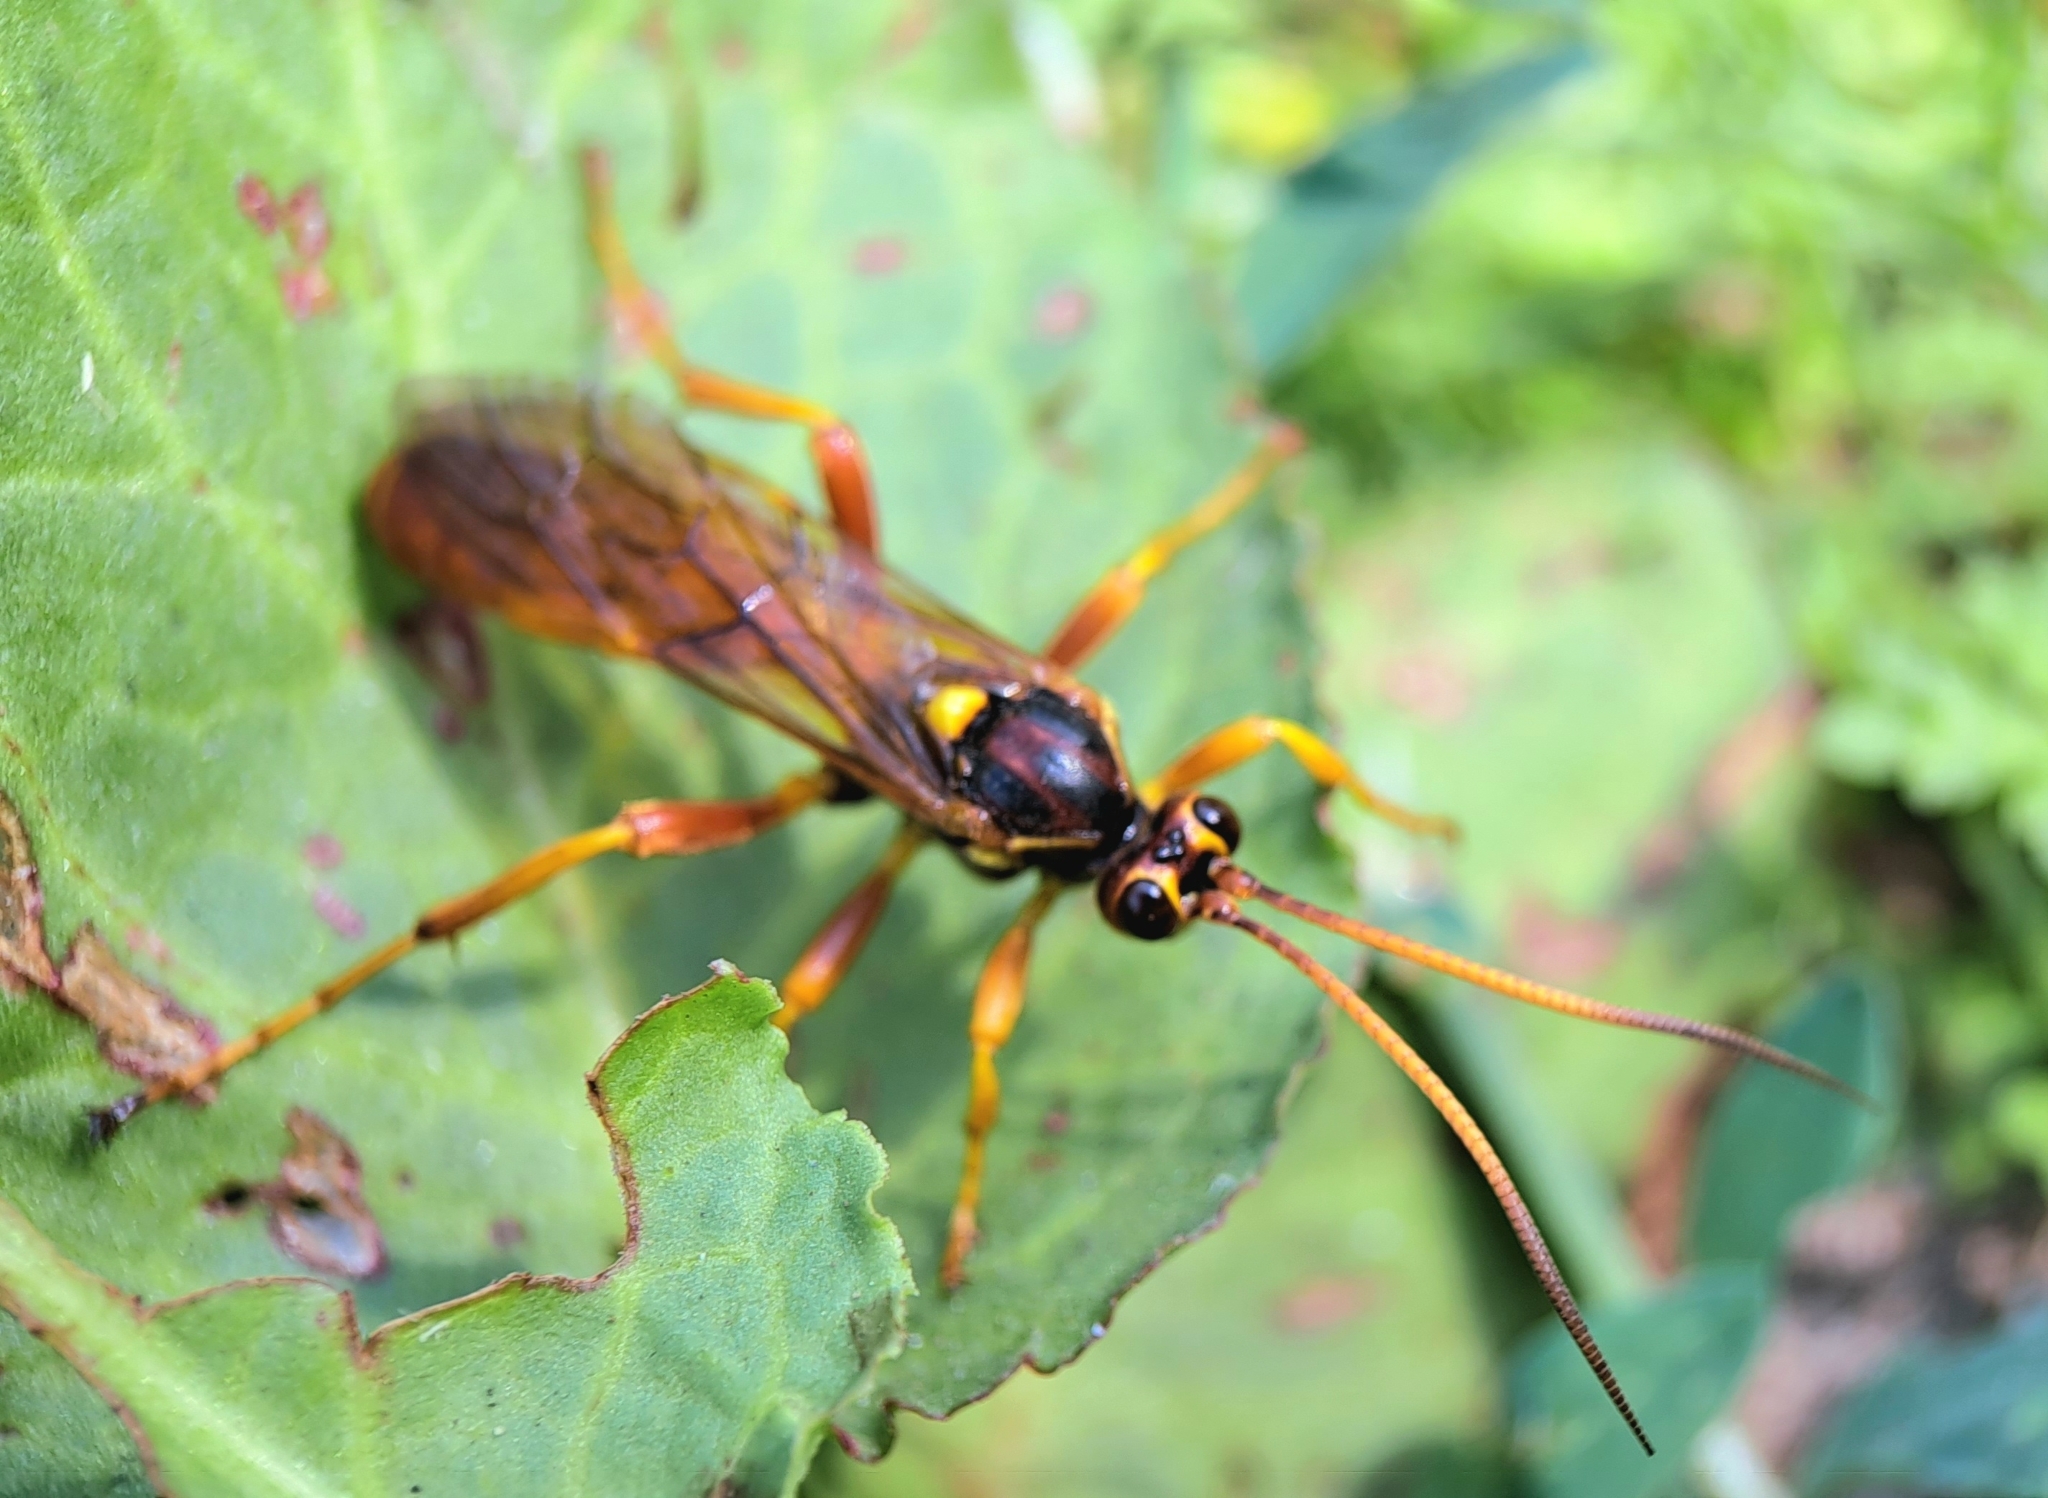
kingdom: Animalia
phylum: Arthropoda
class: Insecta
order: Hymenoptera
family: Ichneumonidae
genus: Callajoppa
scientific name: Callajoppa cirrogaster
